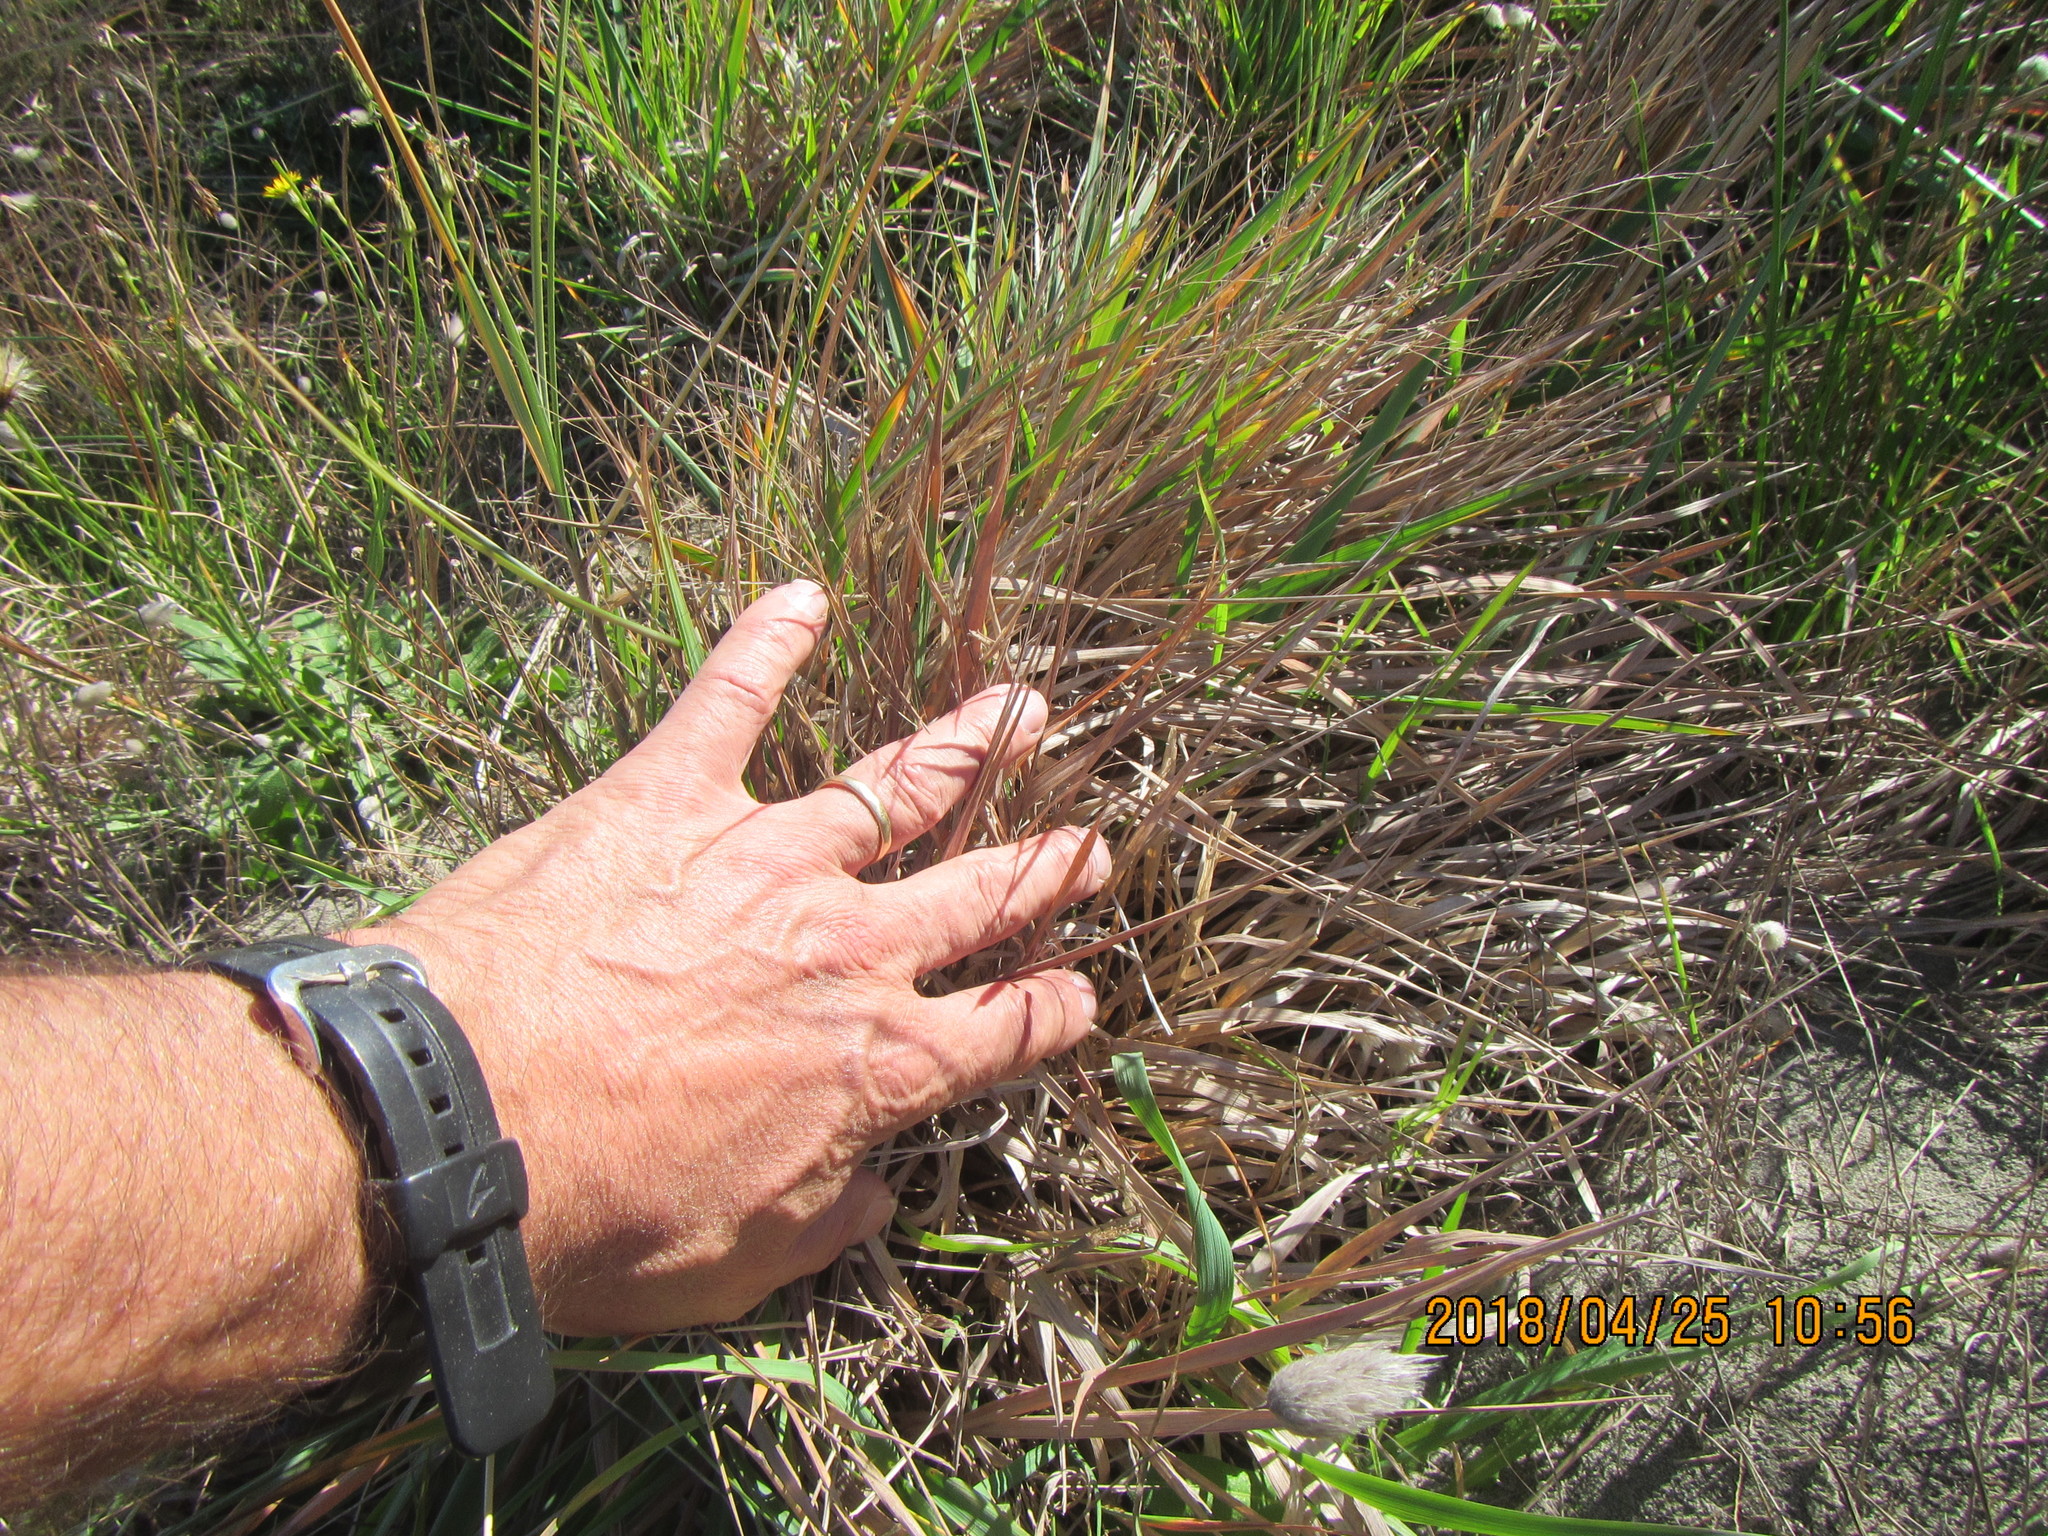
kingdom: Plantae
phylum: Tracheophyta
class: Liliopsida
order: Poales
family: Poaceae
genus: Lachnagrostis
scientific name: Lachnagrostis billardierei
